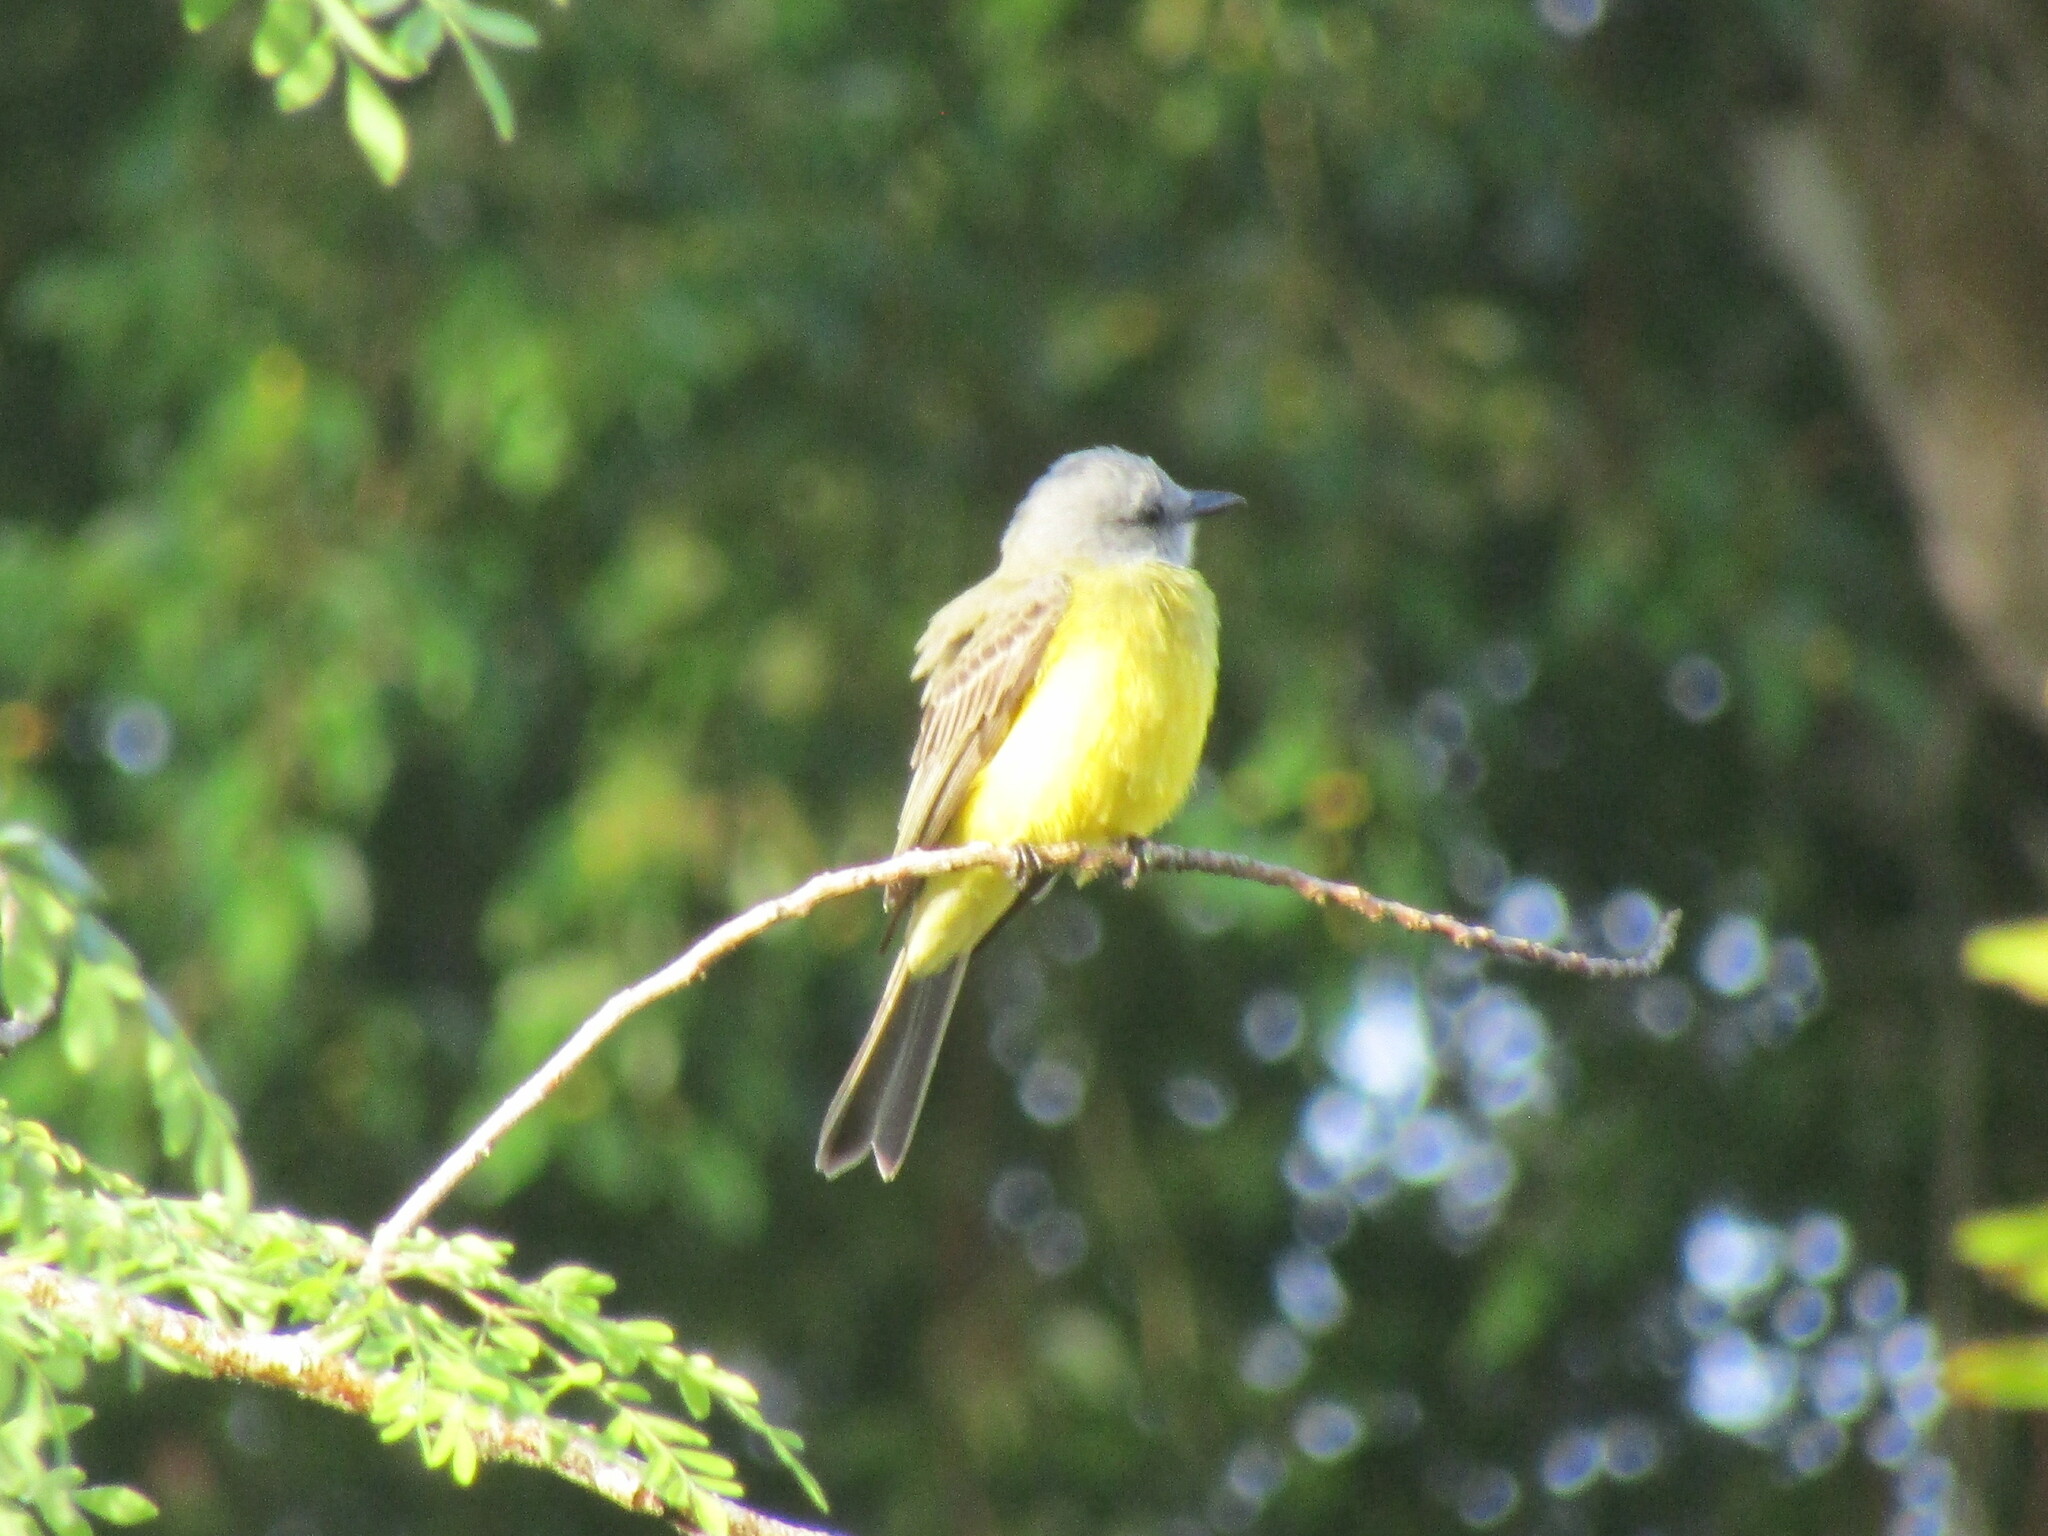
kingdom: Animalia
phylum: Chordata
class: Aves
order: Passeriformes
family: Tyrannidae
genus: Tyrannus
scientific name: Tyrannus melancholicus
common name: Tropical kingbird
